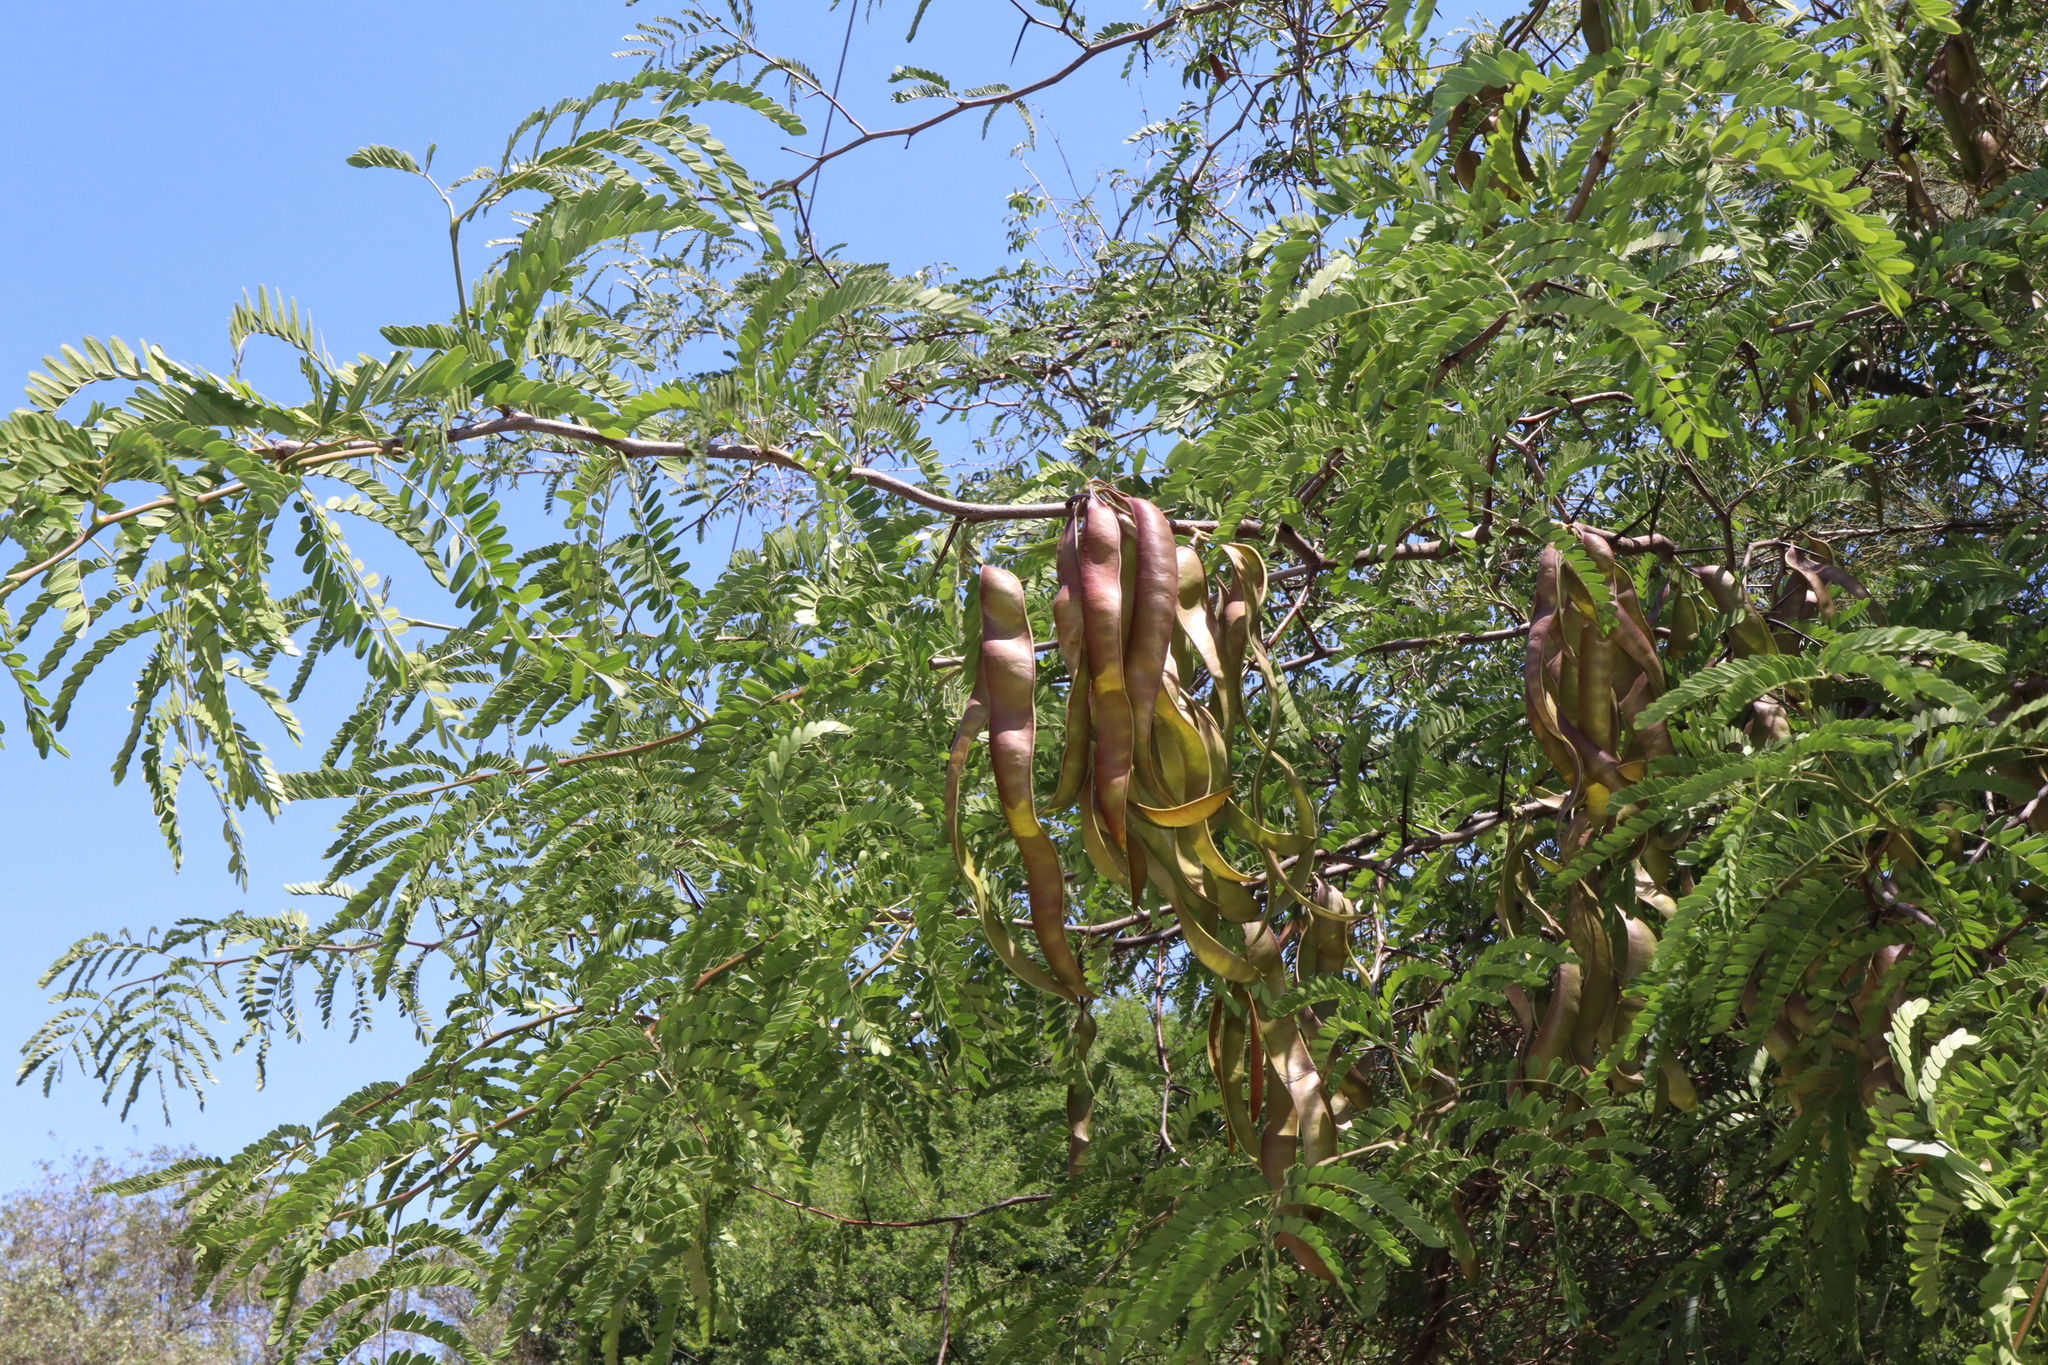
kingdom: Plantae
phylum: Tracheophyta
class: Magnoliopsida
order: Fabales
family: Fabaceae
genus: Gleditsia
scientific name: Gleditsia triacanthos
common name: Common honeylocust
